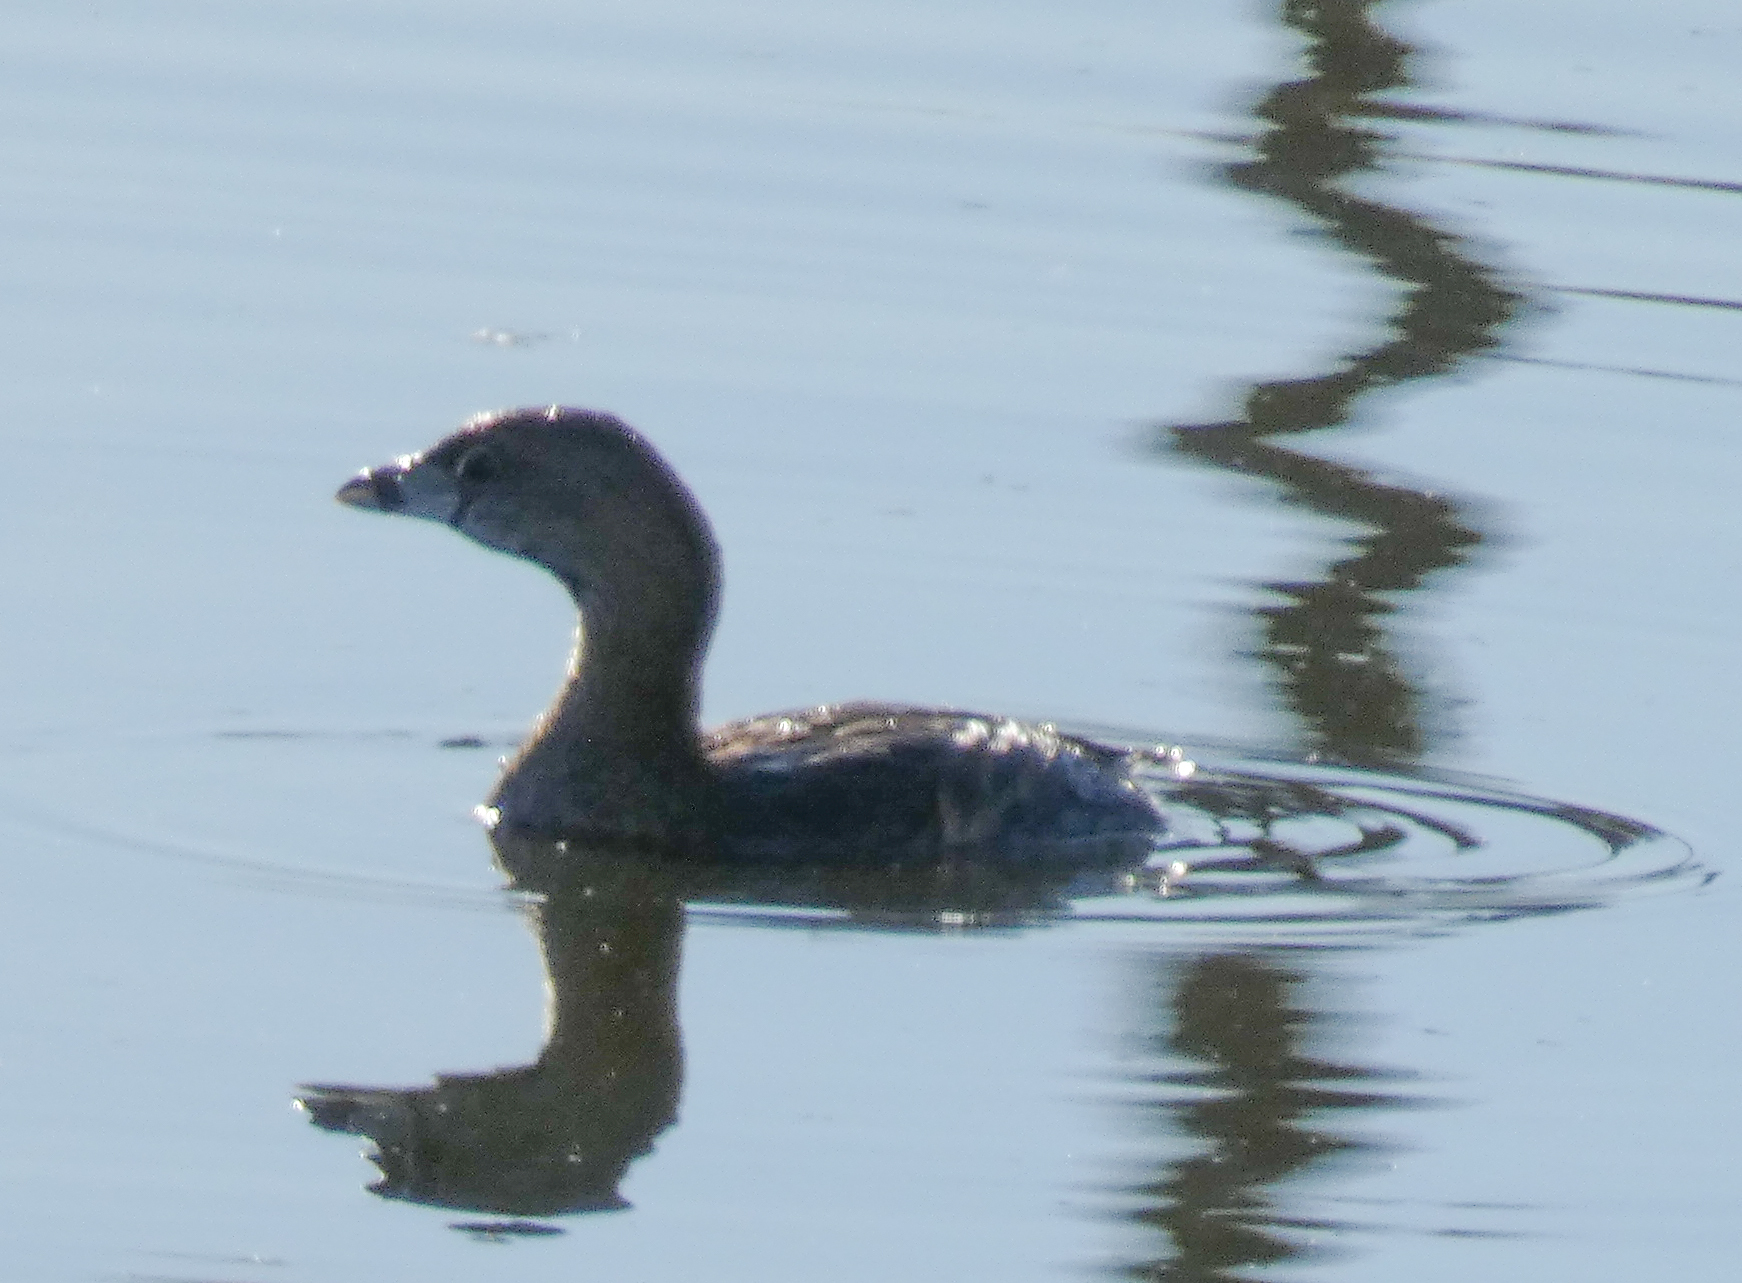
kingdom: Animalia
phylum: Chordata
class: Aves
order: Podicipediformes
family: Podicipedidae
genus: Podilymbus
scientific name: Podilymbus podiceps
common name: Pied-billed grebe
